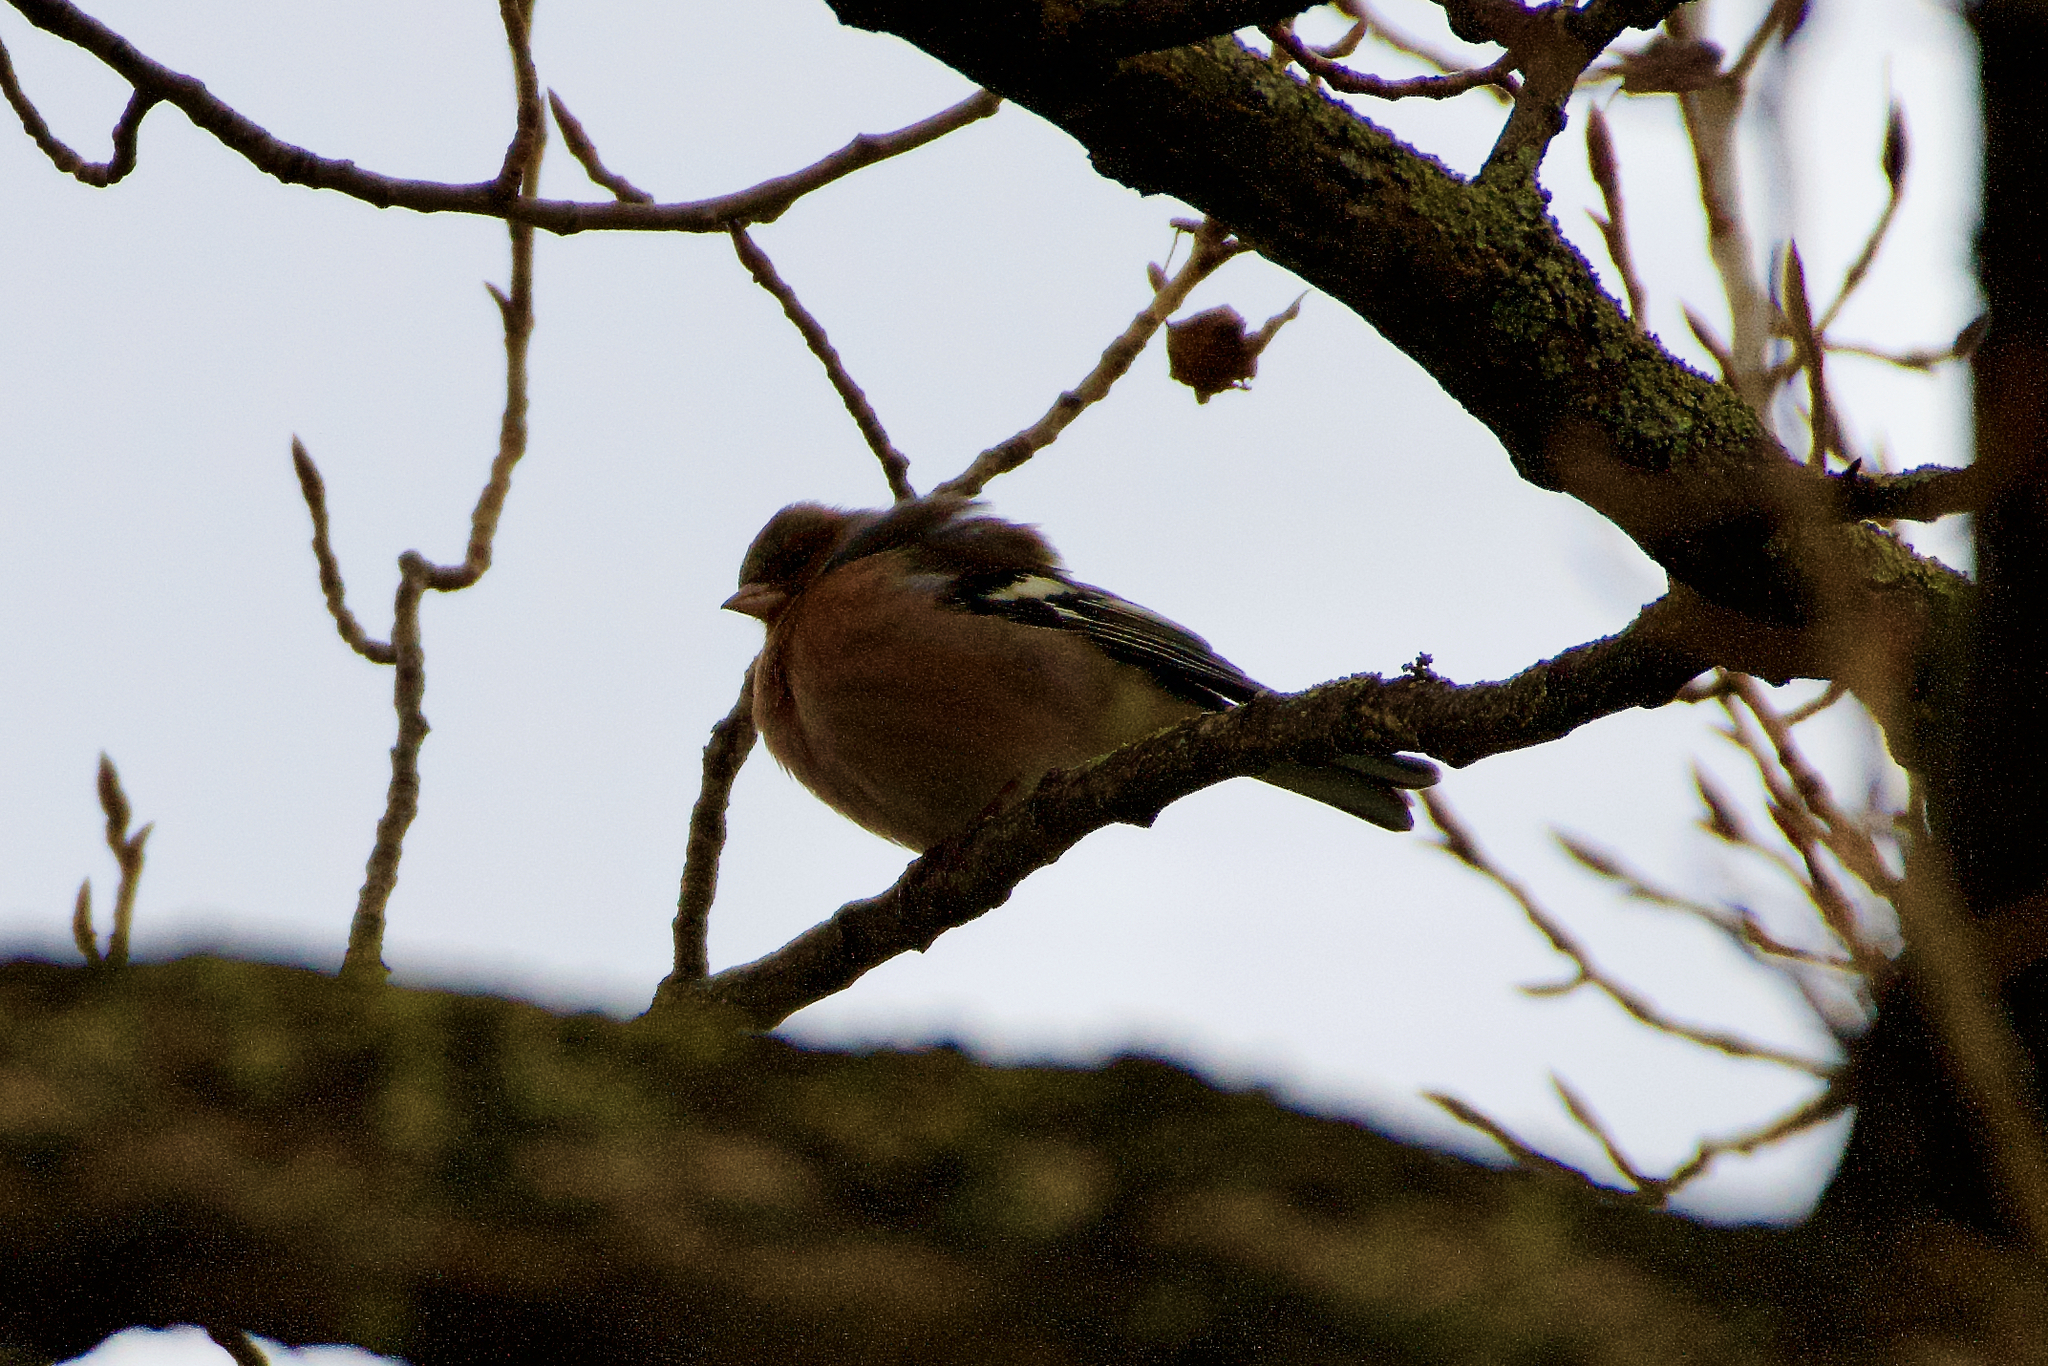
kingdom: Animalia
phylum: Chordata
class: Aves
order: Passeriformes
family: Fringillidae
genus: Fringilla
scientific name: Fringilla coelebs
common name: Common chaffinch
